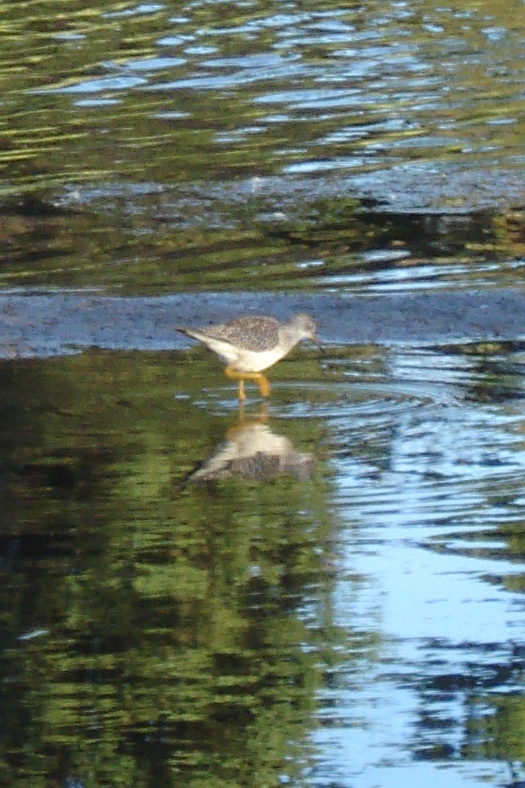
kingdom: Animalia
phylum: Chordata
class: Aves
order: Charadriiformes
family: Scolopacidae
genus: Tringa
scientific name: Tringa flavipes
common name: Lesser yellowlegs
